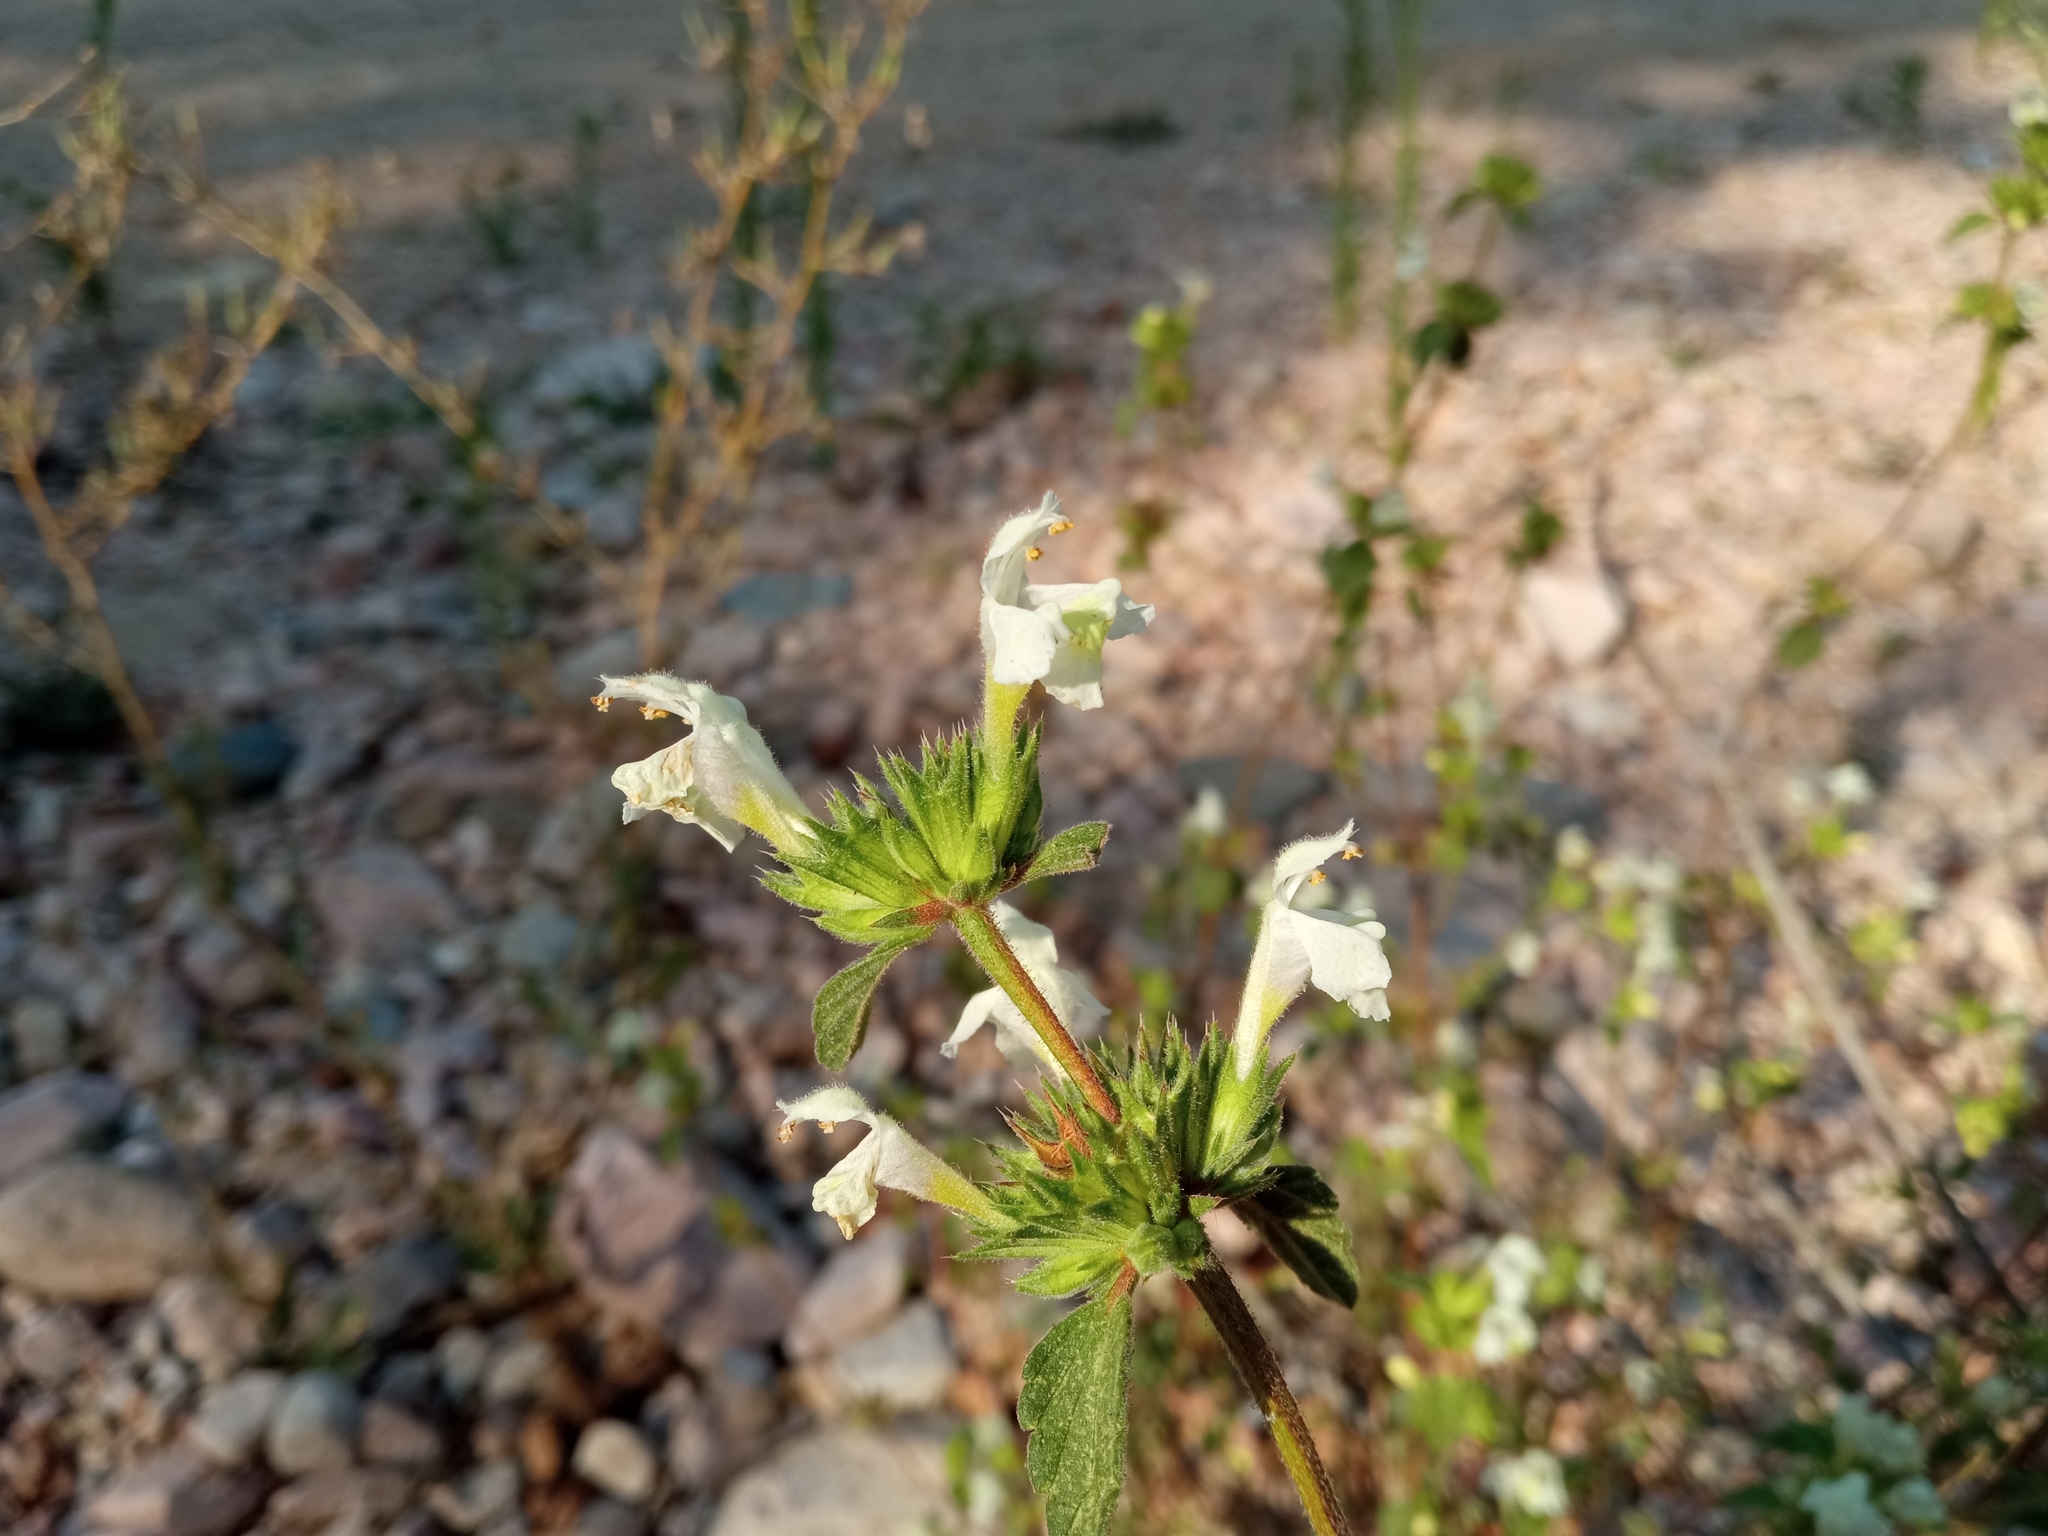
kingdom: Plantae
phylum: Tracheophyta
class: Magnoliopsida
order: Lamiales
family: Lamiaceae
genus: Galeopsis
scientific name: Galeopsis segetum
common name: Downy hemp-nettle
